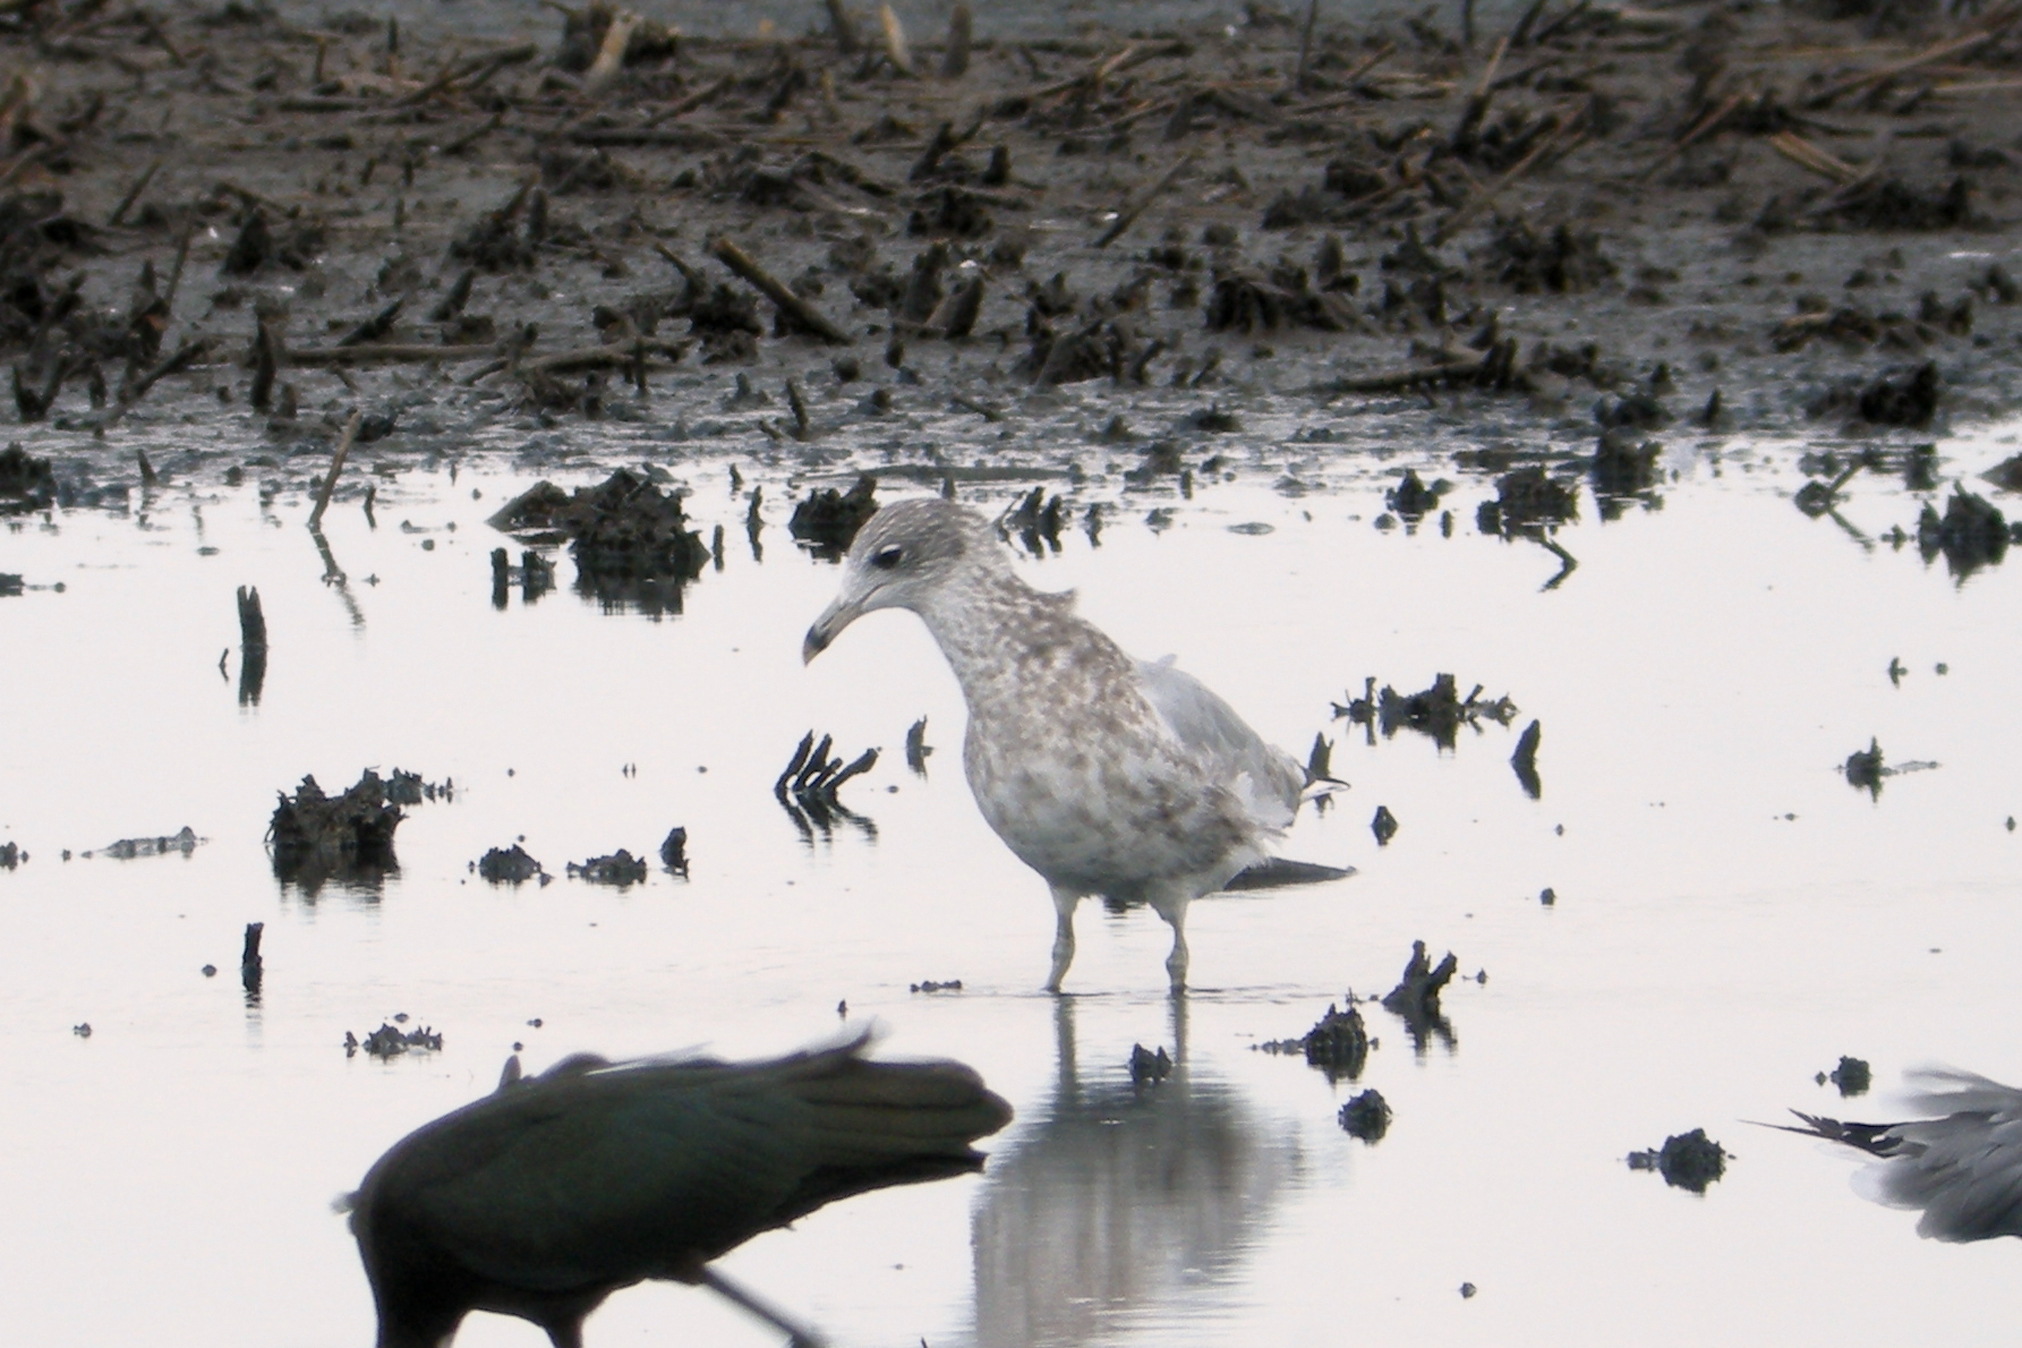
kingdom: Animalia
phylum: Chordata
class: Aves
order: Charadriiformes
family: Laridae
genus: Larus
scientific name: Larus delawarensis
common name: Ring-billed gull
